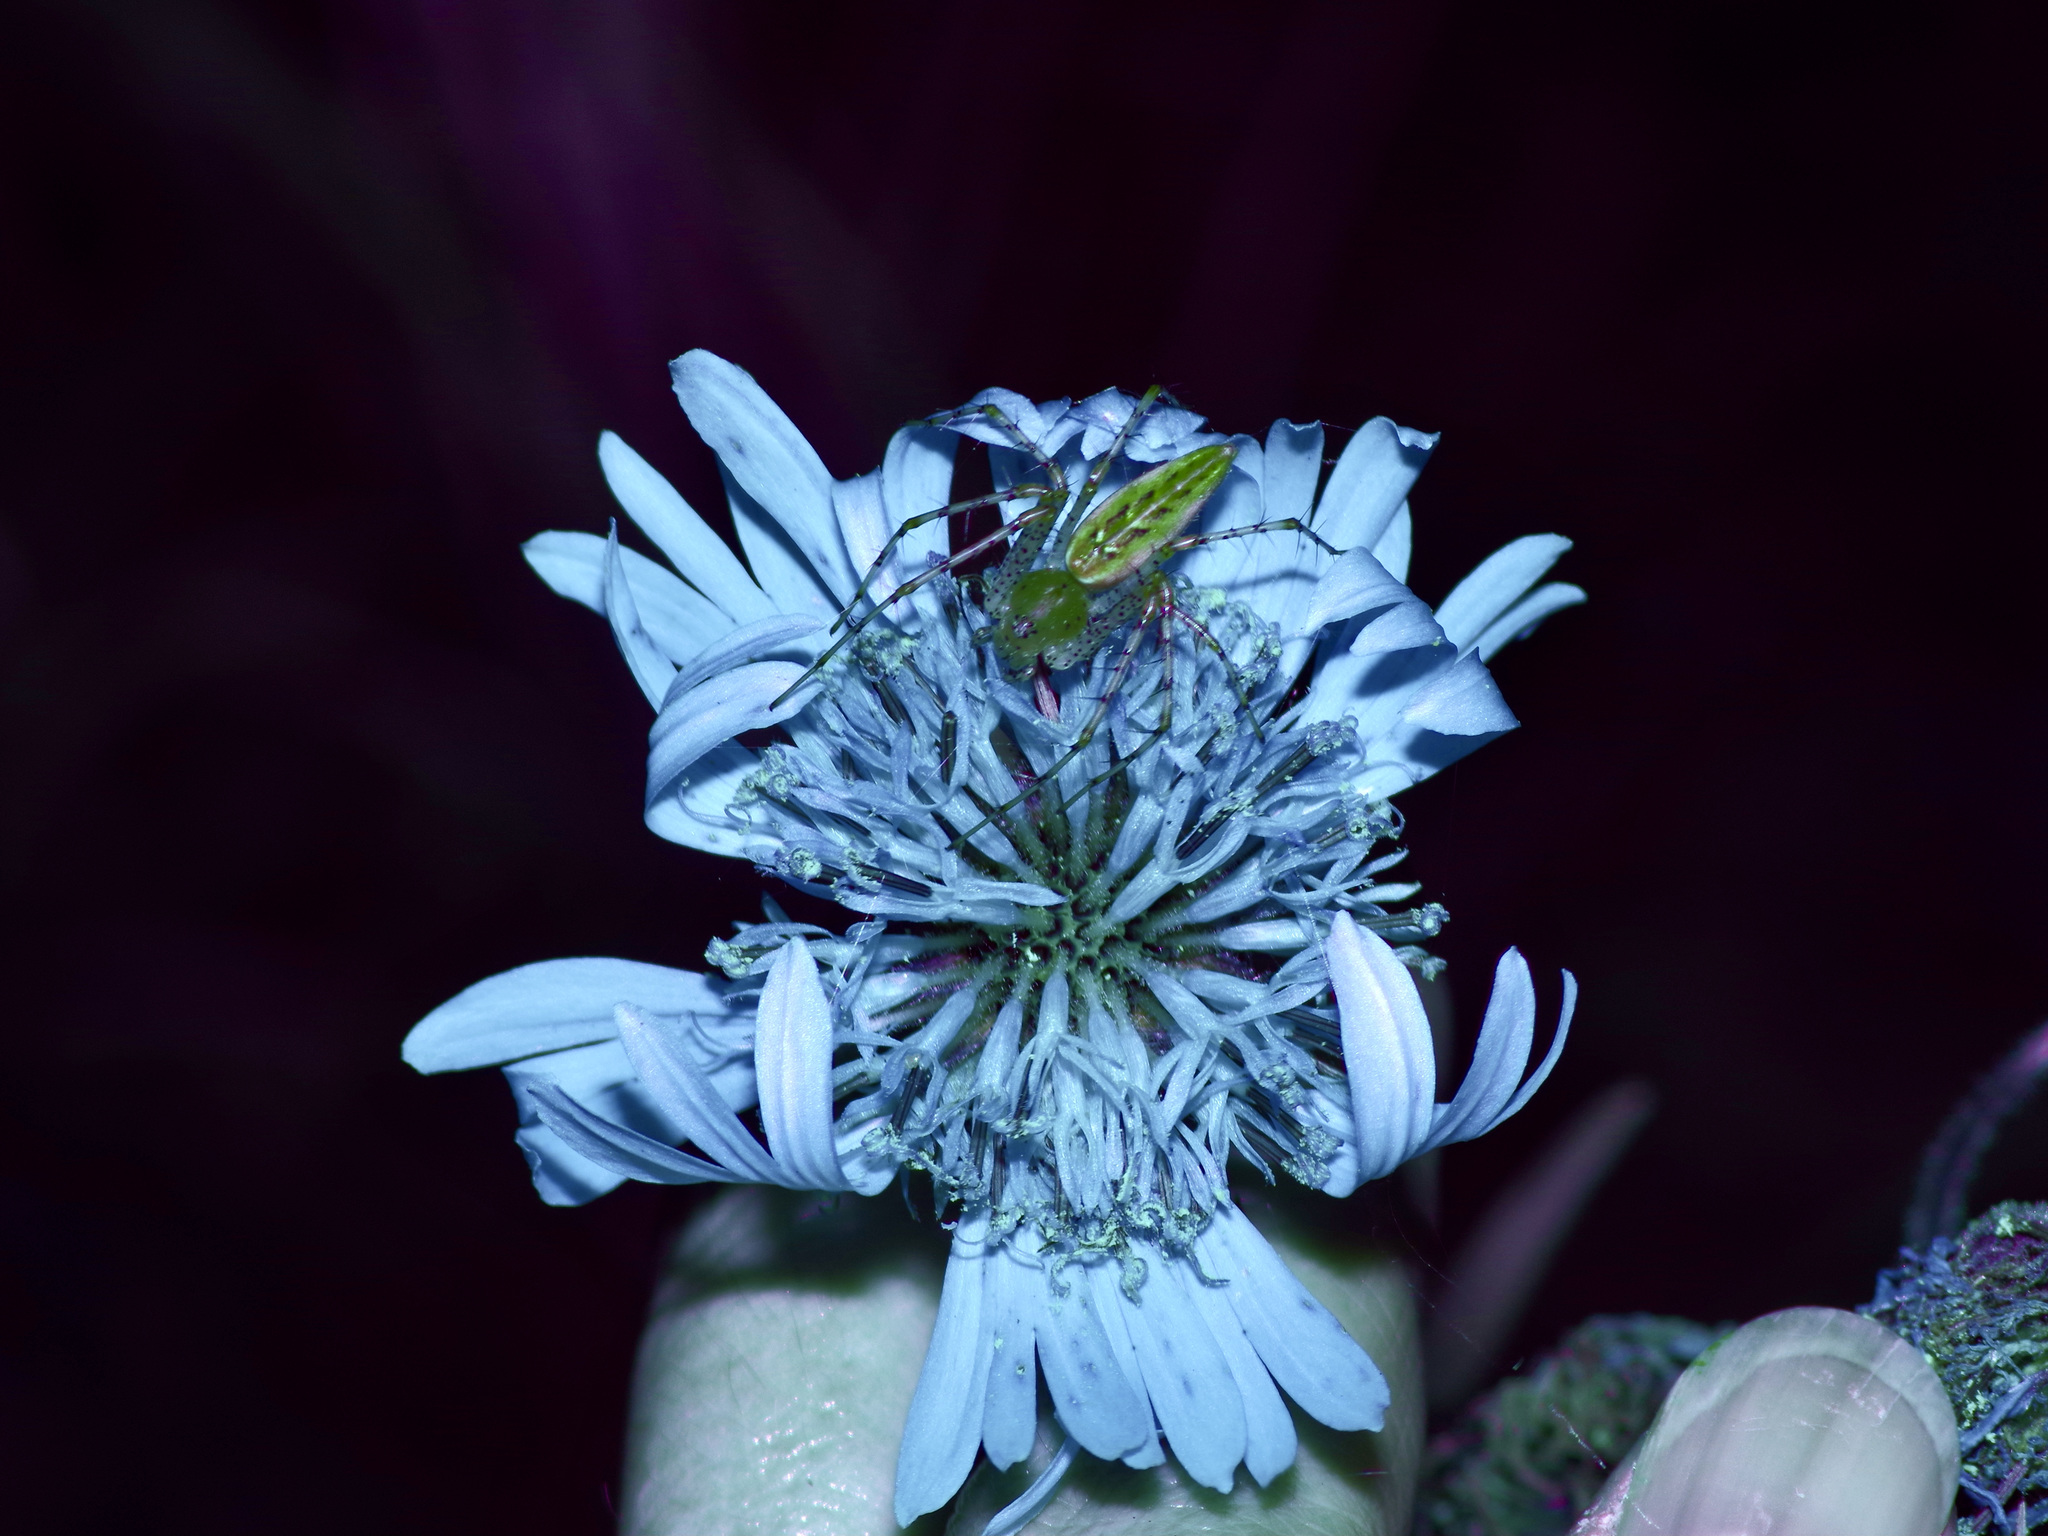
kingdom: Animalia
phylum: Arthropoda
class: Arachnida
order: Araneae
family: Oxyopidae
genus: Peucetia
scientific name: Peucetia viridans
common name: Lynx spiders
